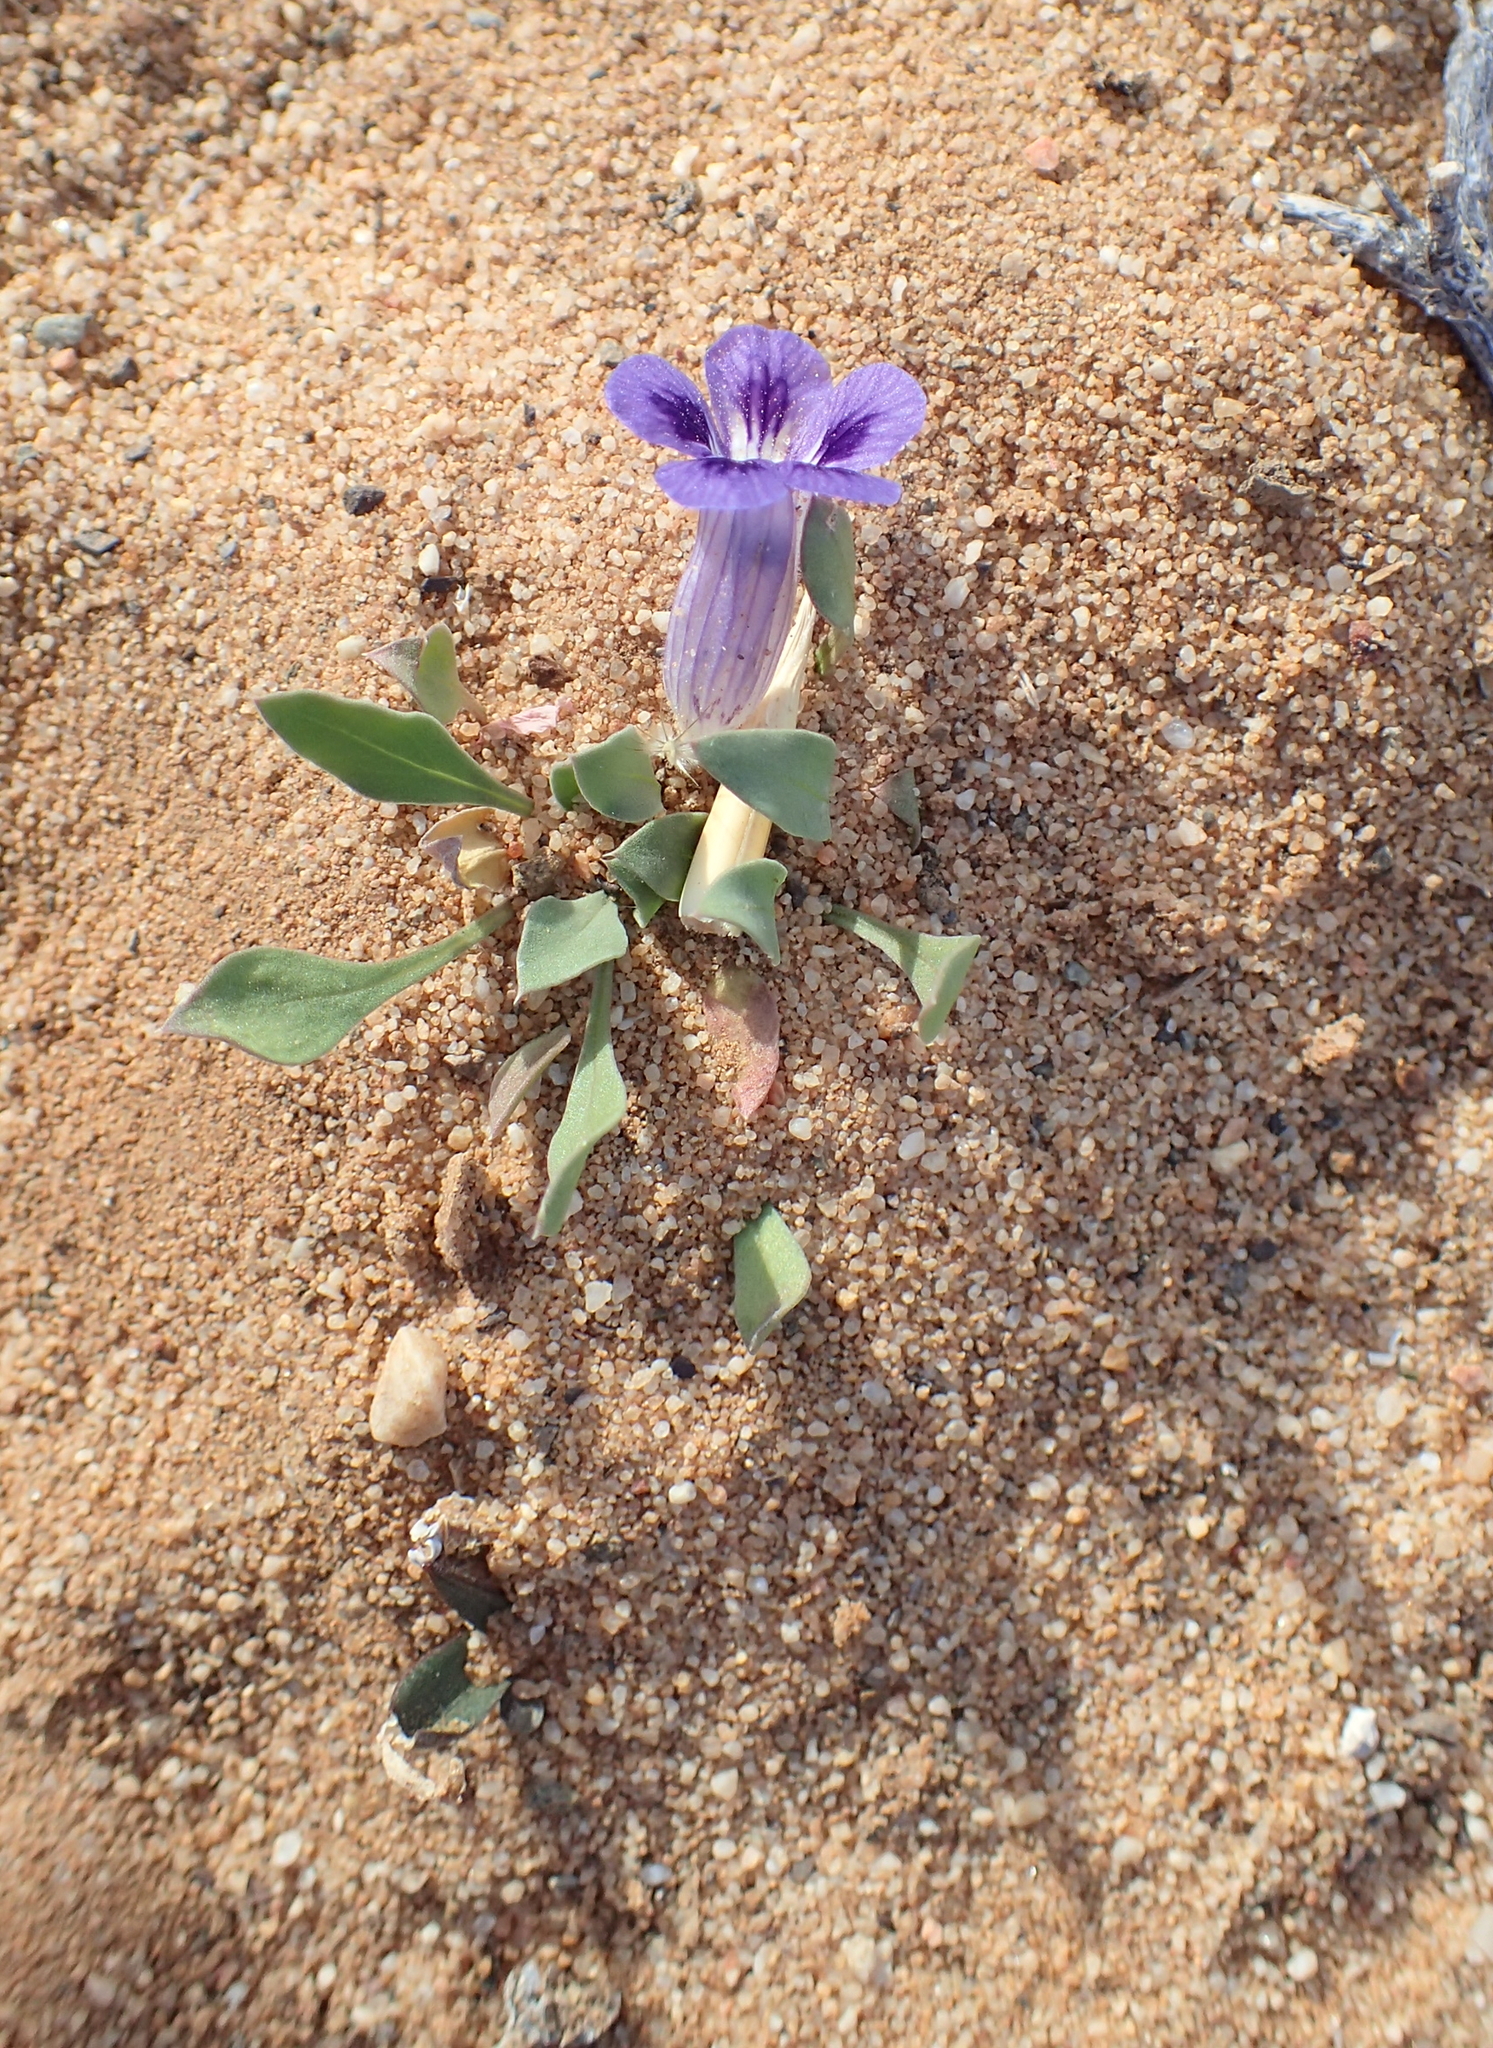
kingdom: Plantae
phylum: Tracheophyta
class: Magnoliopsida
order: Lamiales
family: Scrophulariaceae
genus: Aptosimum
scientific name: Aptosimum indivisum
